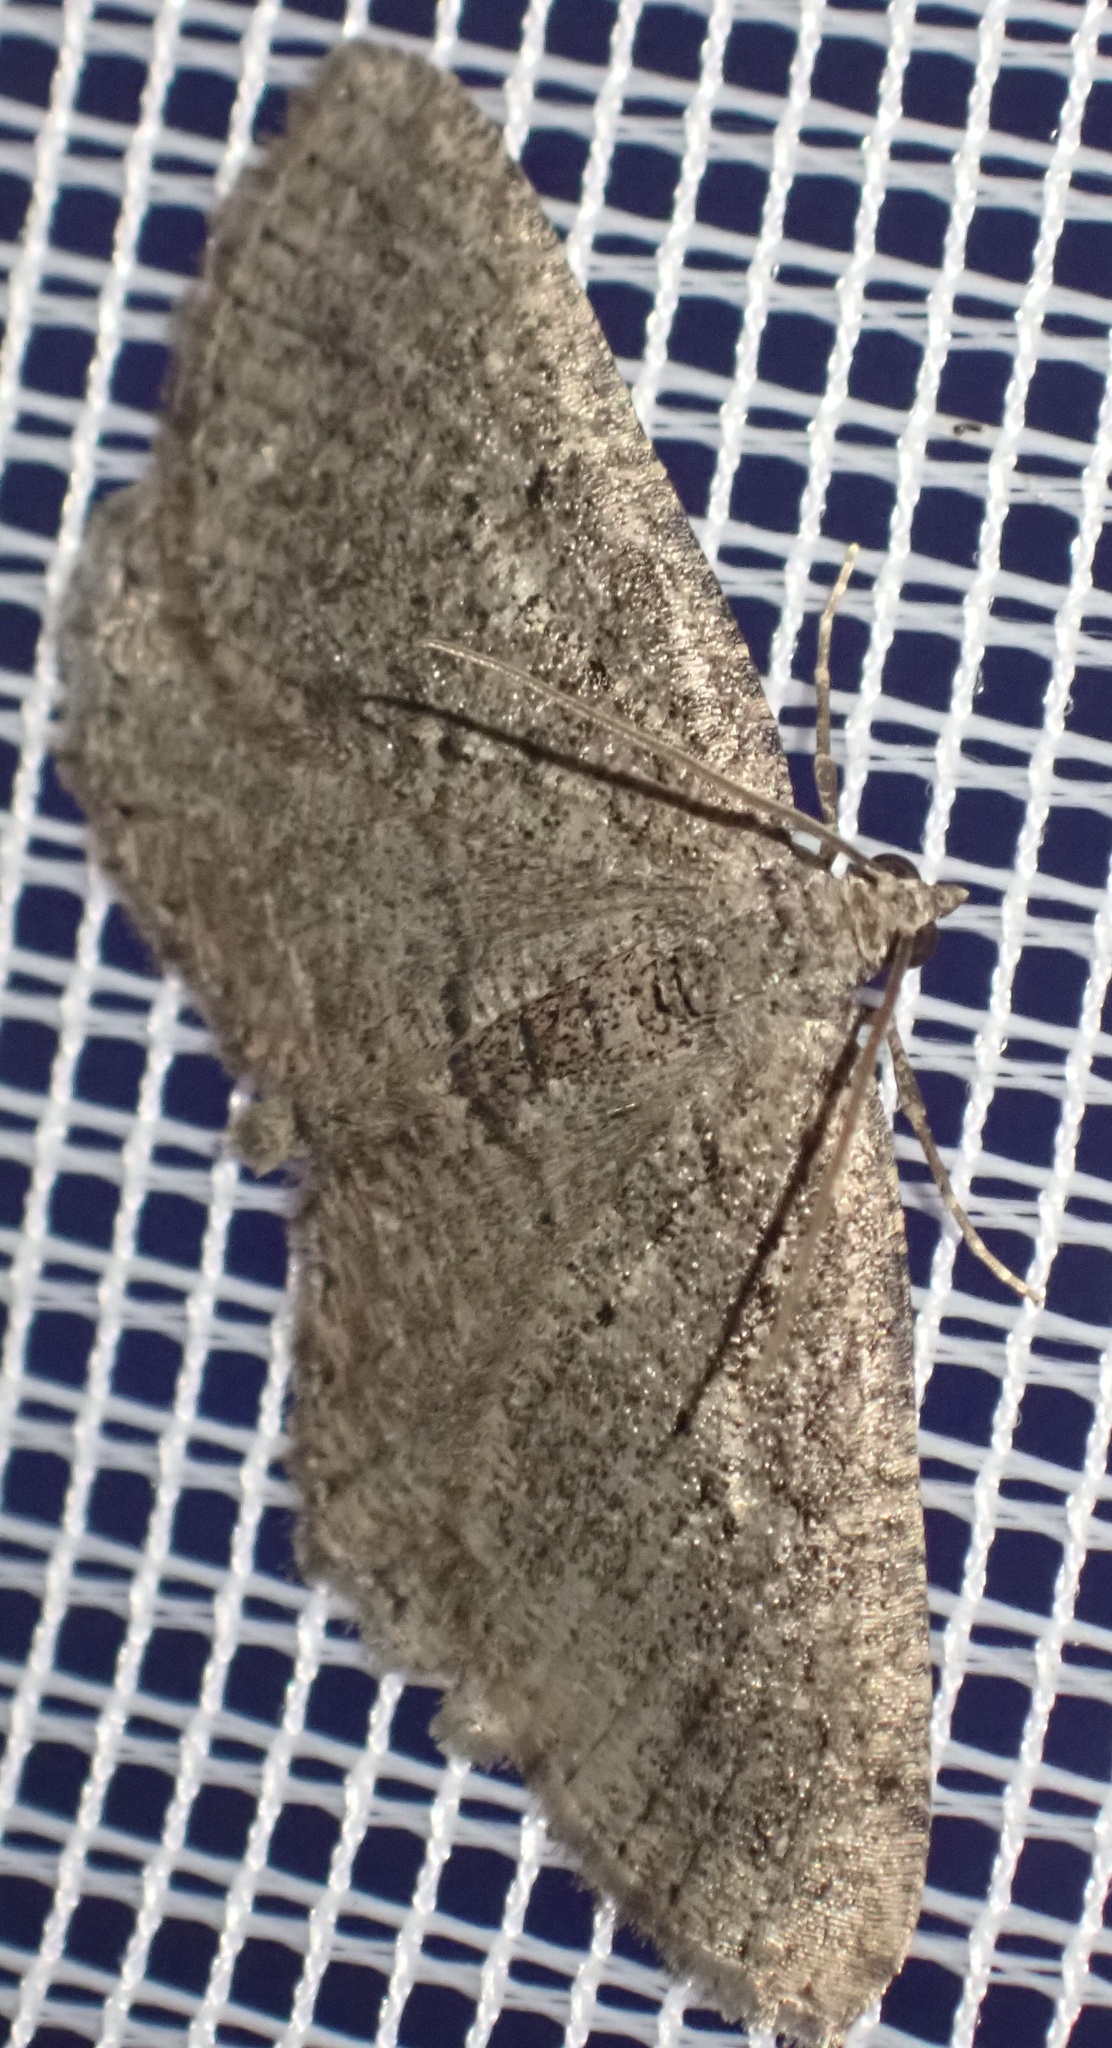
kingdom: Animalia
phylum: Arthropoda
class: Insecta
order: Lepidoptera
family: Geometridae
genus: Rhoptria
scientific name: Rhoptria asperaria
